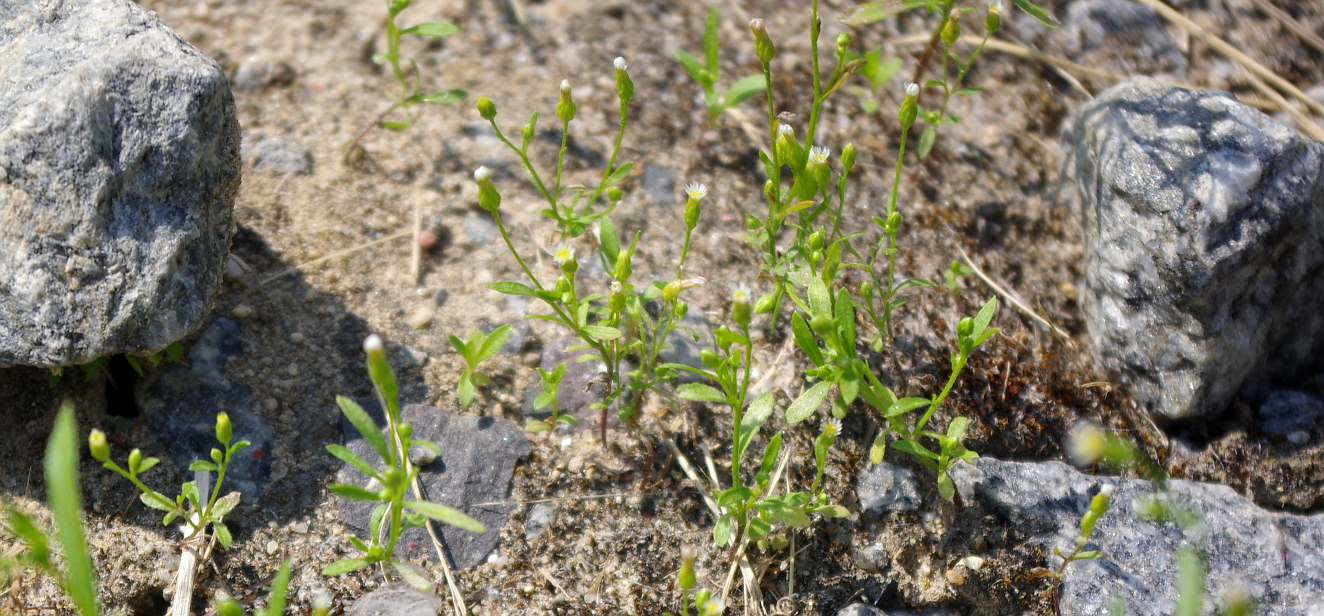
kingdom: Plantae
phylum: Tracheophyta
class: Magnoliopsida
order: Asterales
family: Asteraceae
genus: Erigeron
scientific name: Erigeron canadensis
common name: Canadian fleabane
